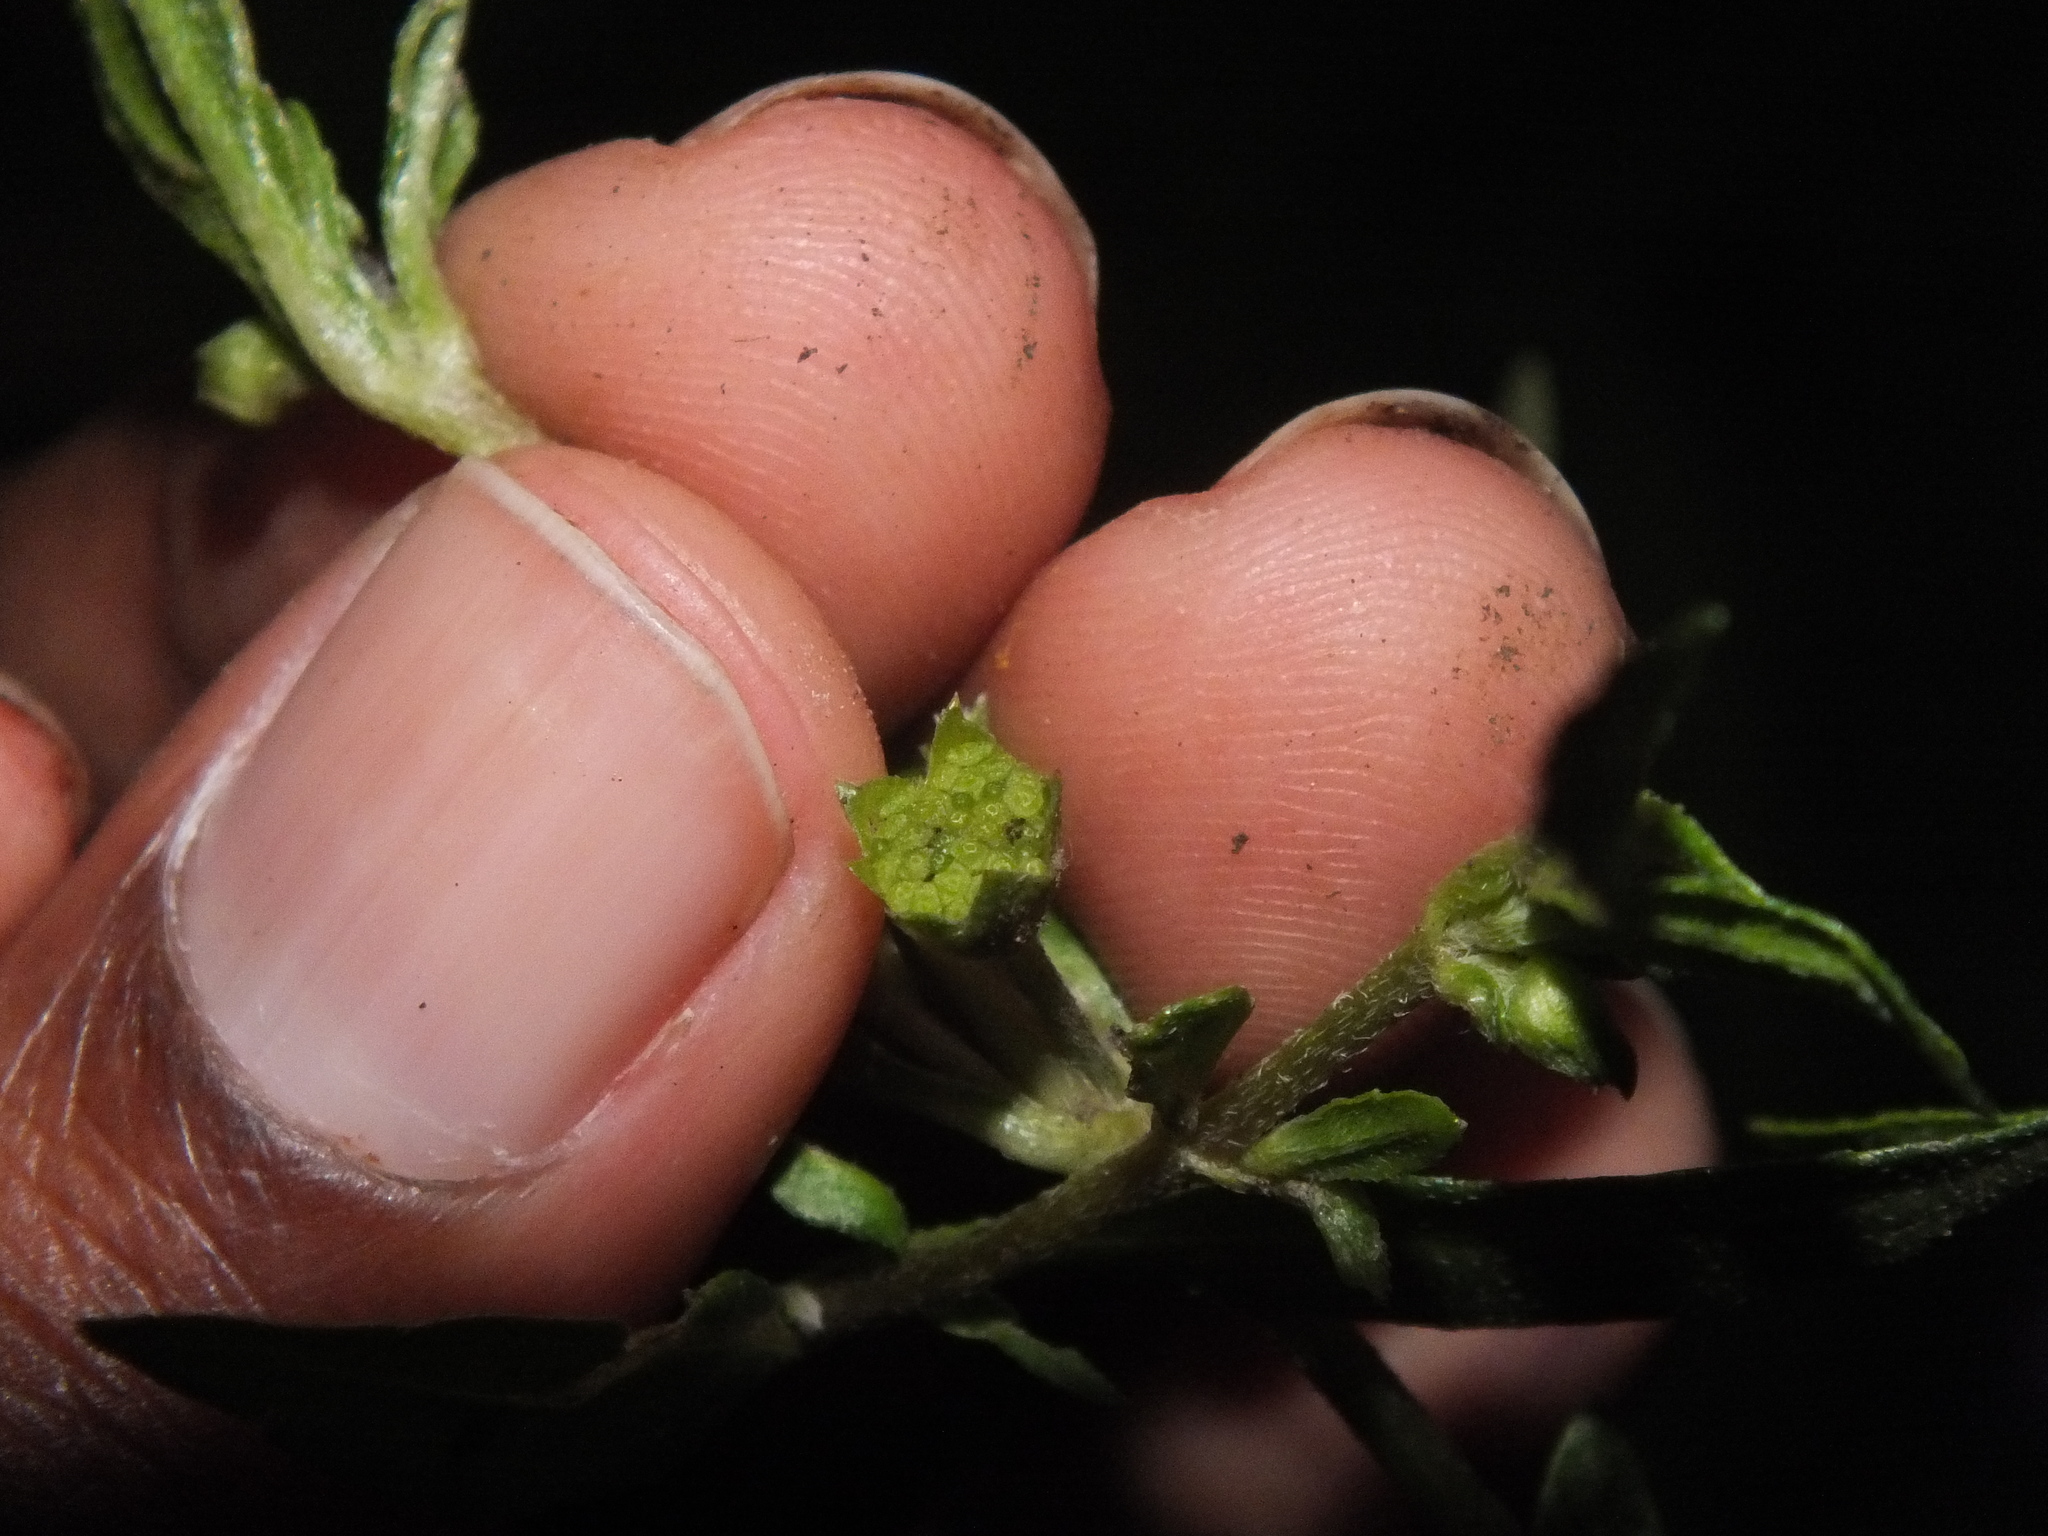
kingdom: Plantae
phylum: Tracheophyta
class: Magnoliopsida
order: Asterales
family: Asteraceae
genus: Eclipta
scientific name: Eclipta prostrata
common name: False daisy
